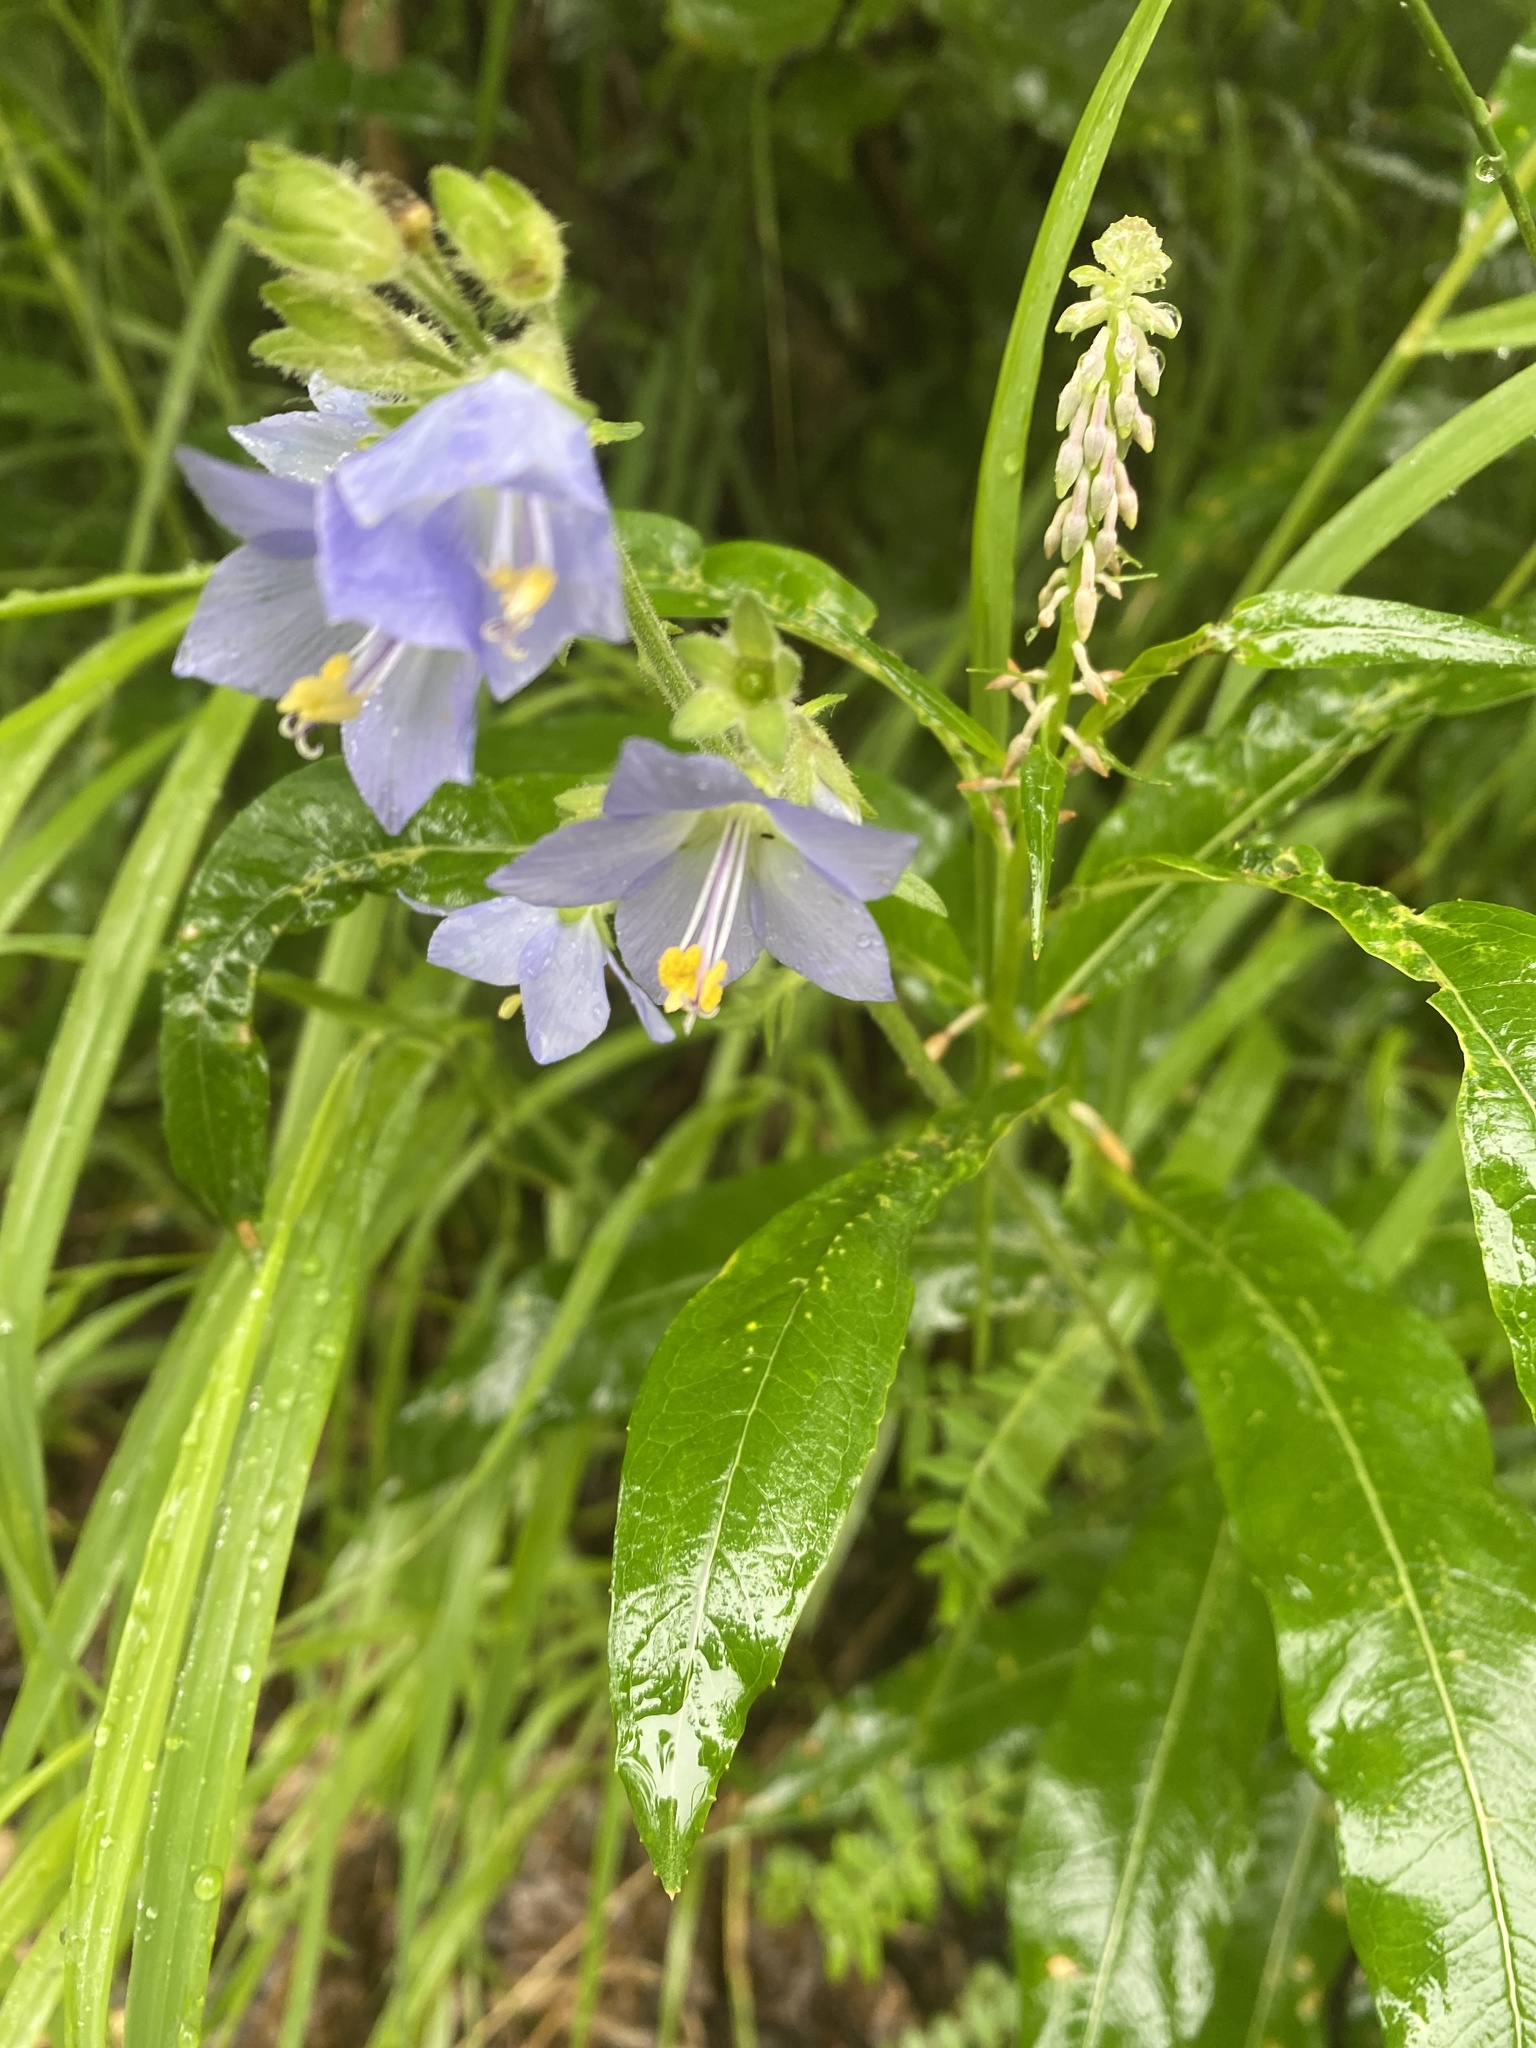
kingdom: Plantae
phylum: Tracheophyta
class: Magnoliopsida
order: Ericales
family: Polemoniaceae
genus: Polemonium
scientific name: Polemonium acutiflorum
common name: Tall jacob's-ladder
